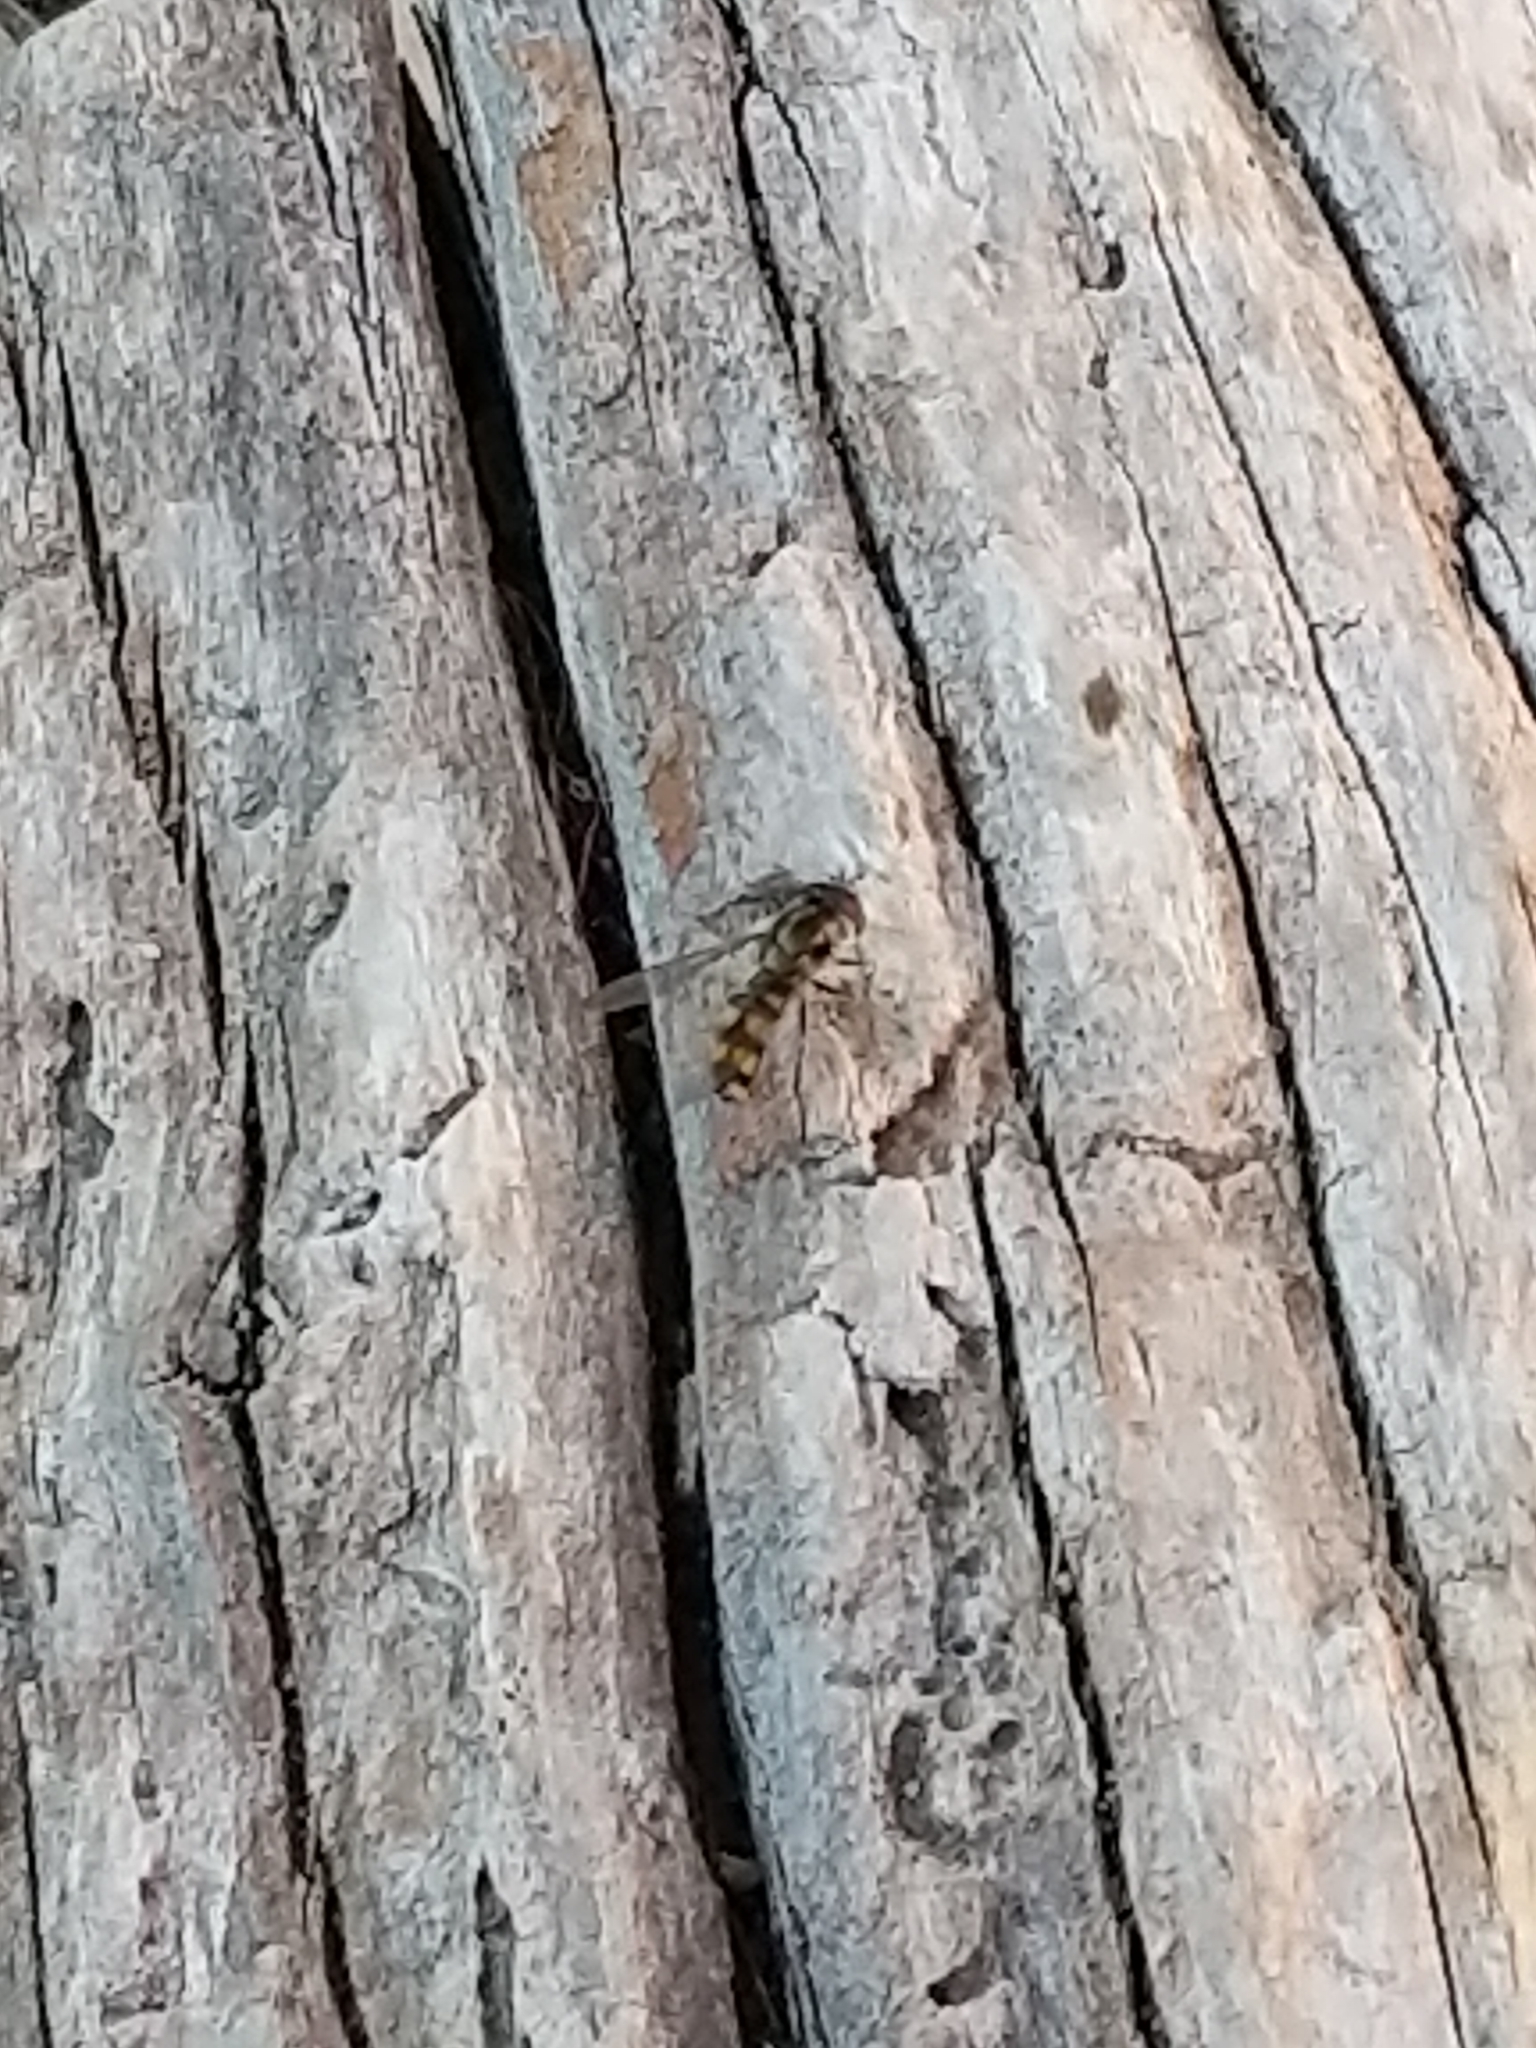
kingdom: Animalia
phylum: Arthropoda
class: Insecta
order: Diptera
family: Syrphidae
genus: Melangyna
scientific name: Melangyna viridiceps
